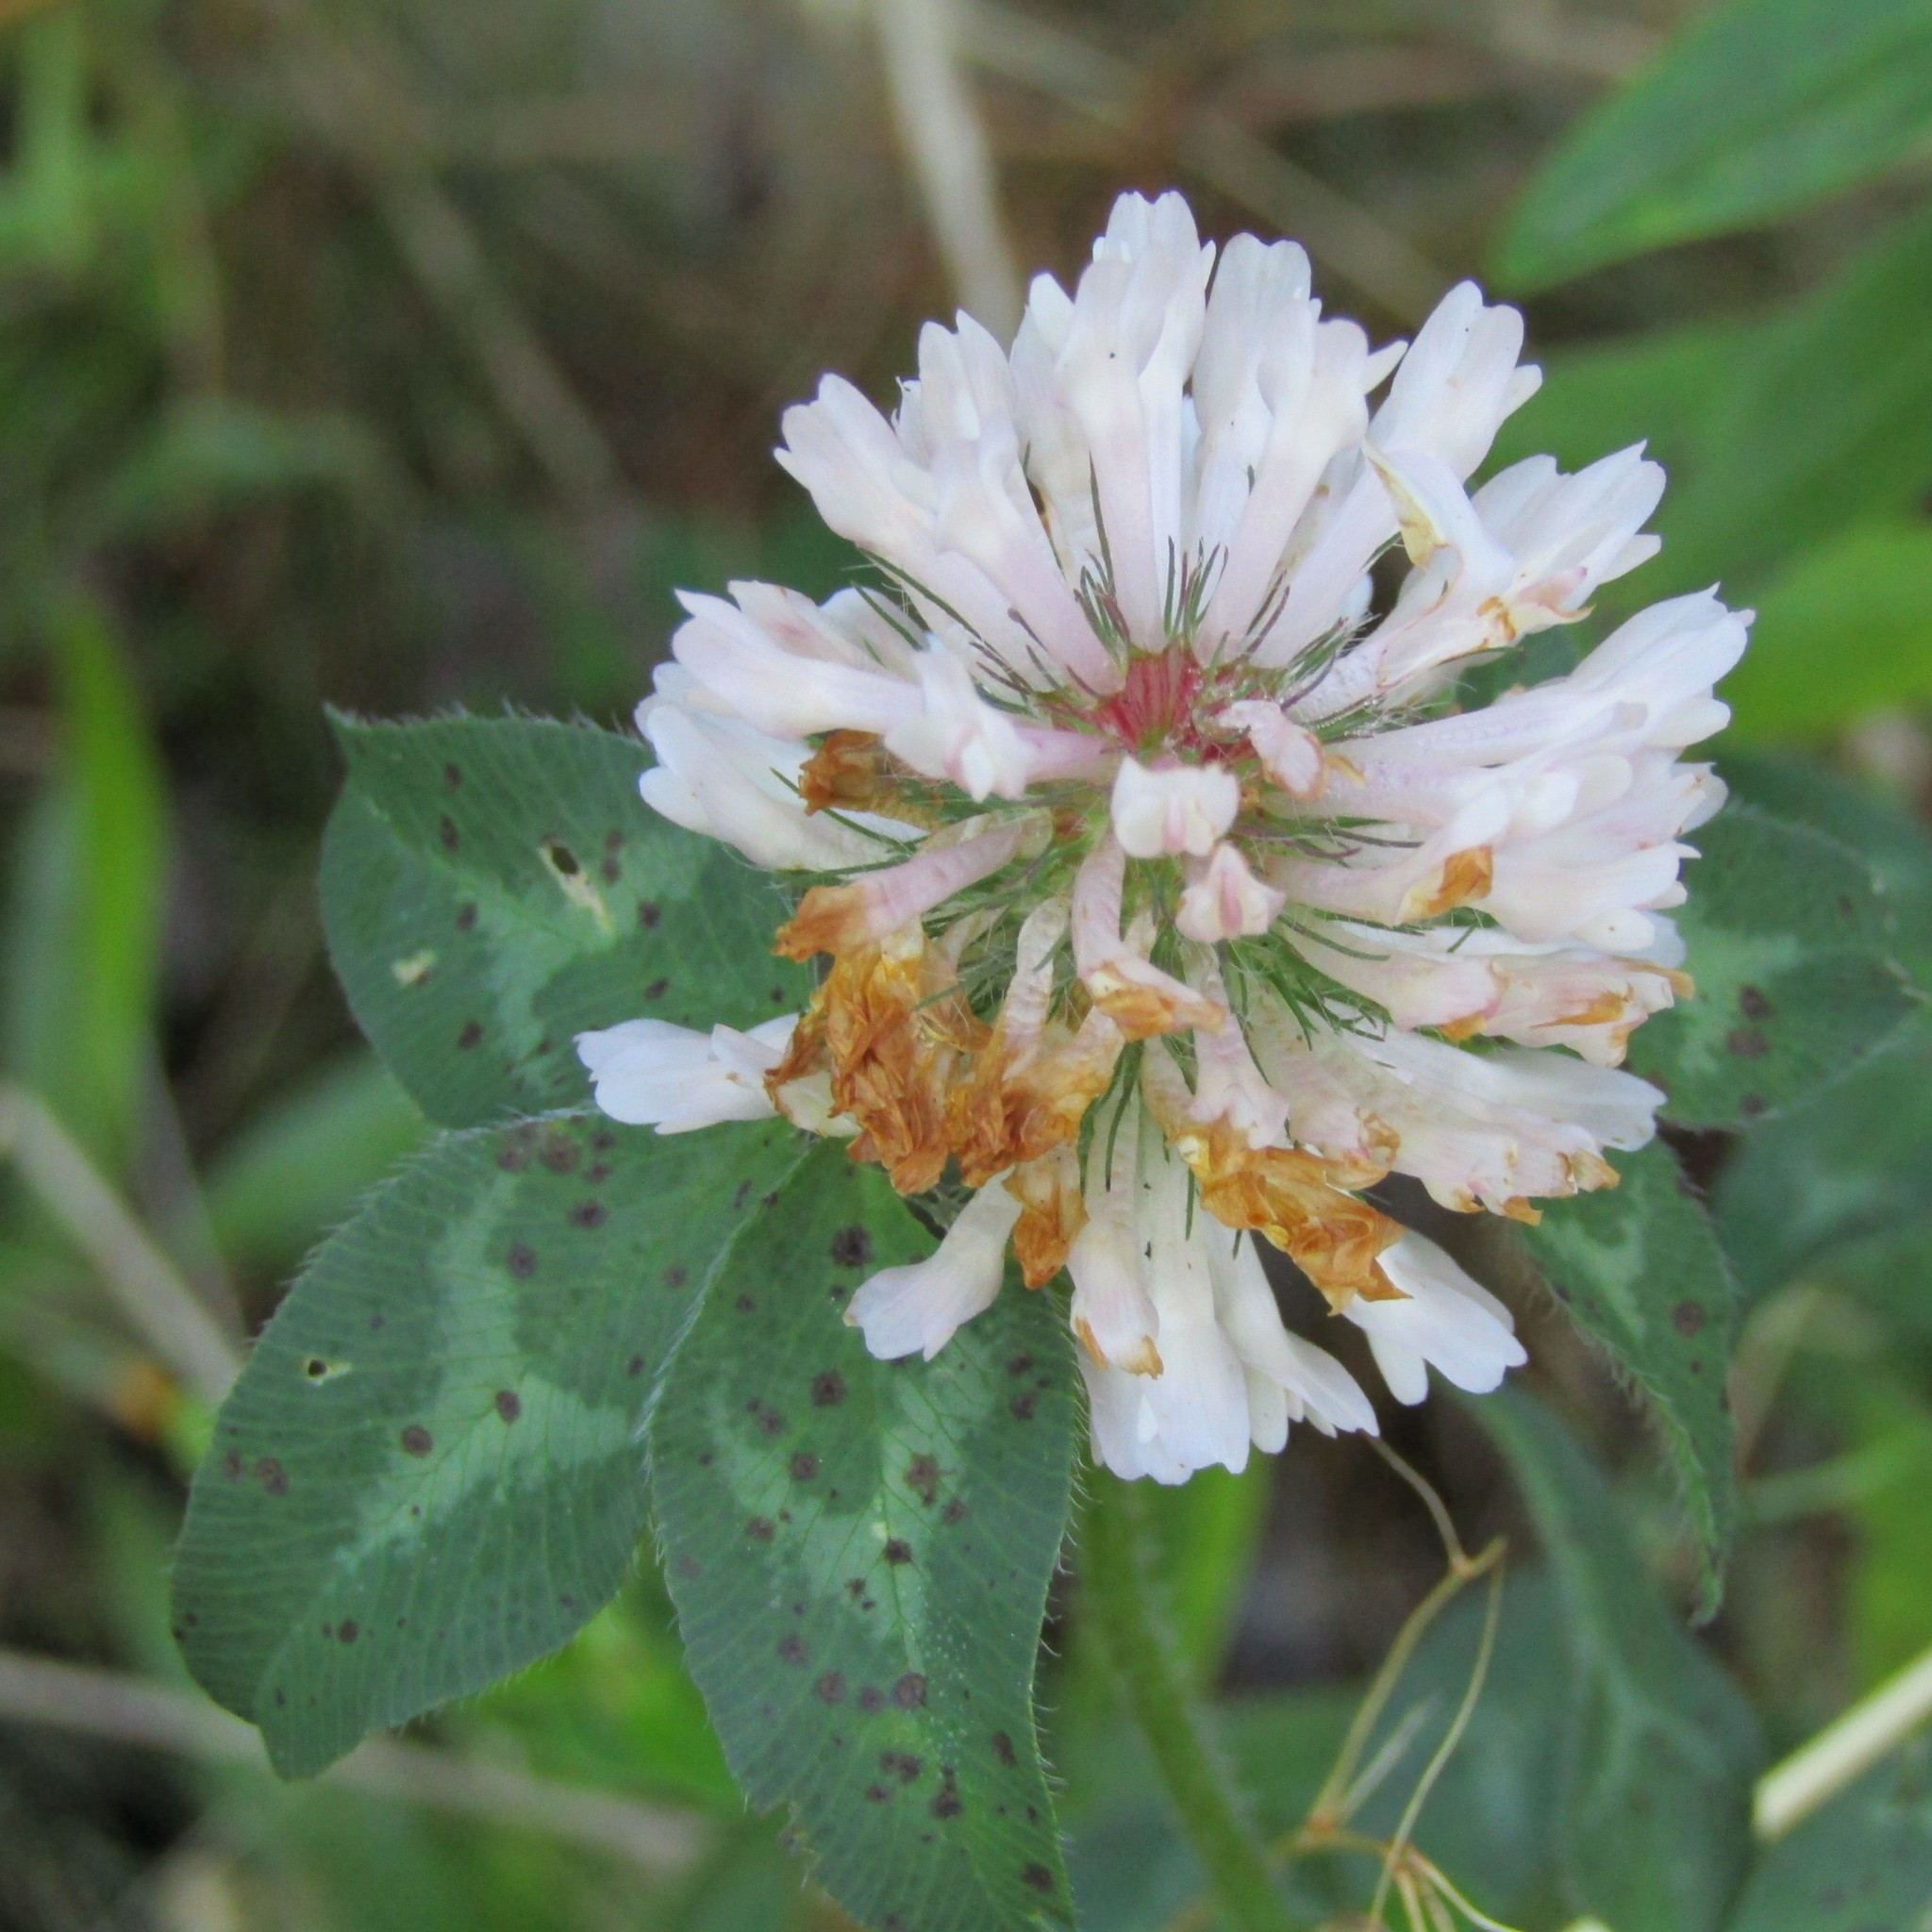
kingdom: Plantae
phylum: Tracheophyta
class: Magnoliopsida
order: Fabales
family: Fabaceae
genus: Trifolium
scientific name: Trifolium pratense
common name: Red clover
